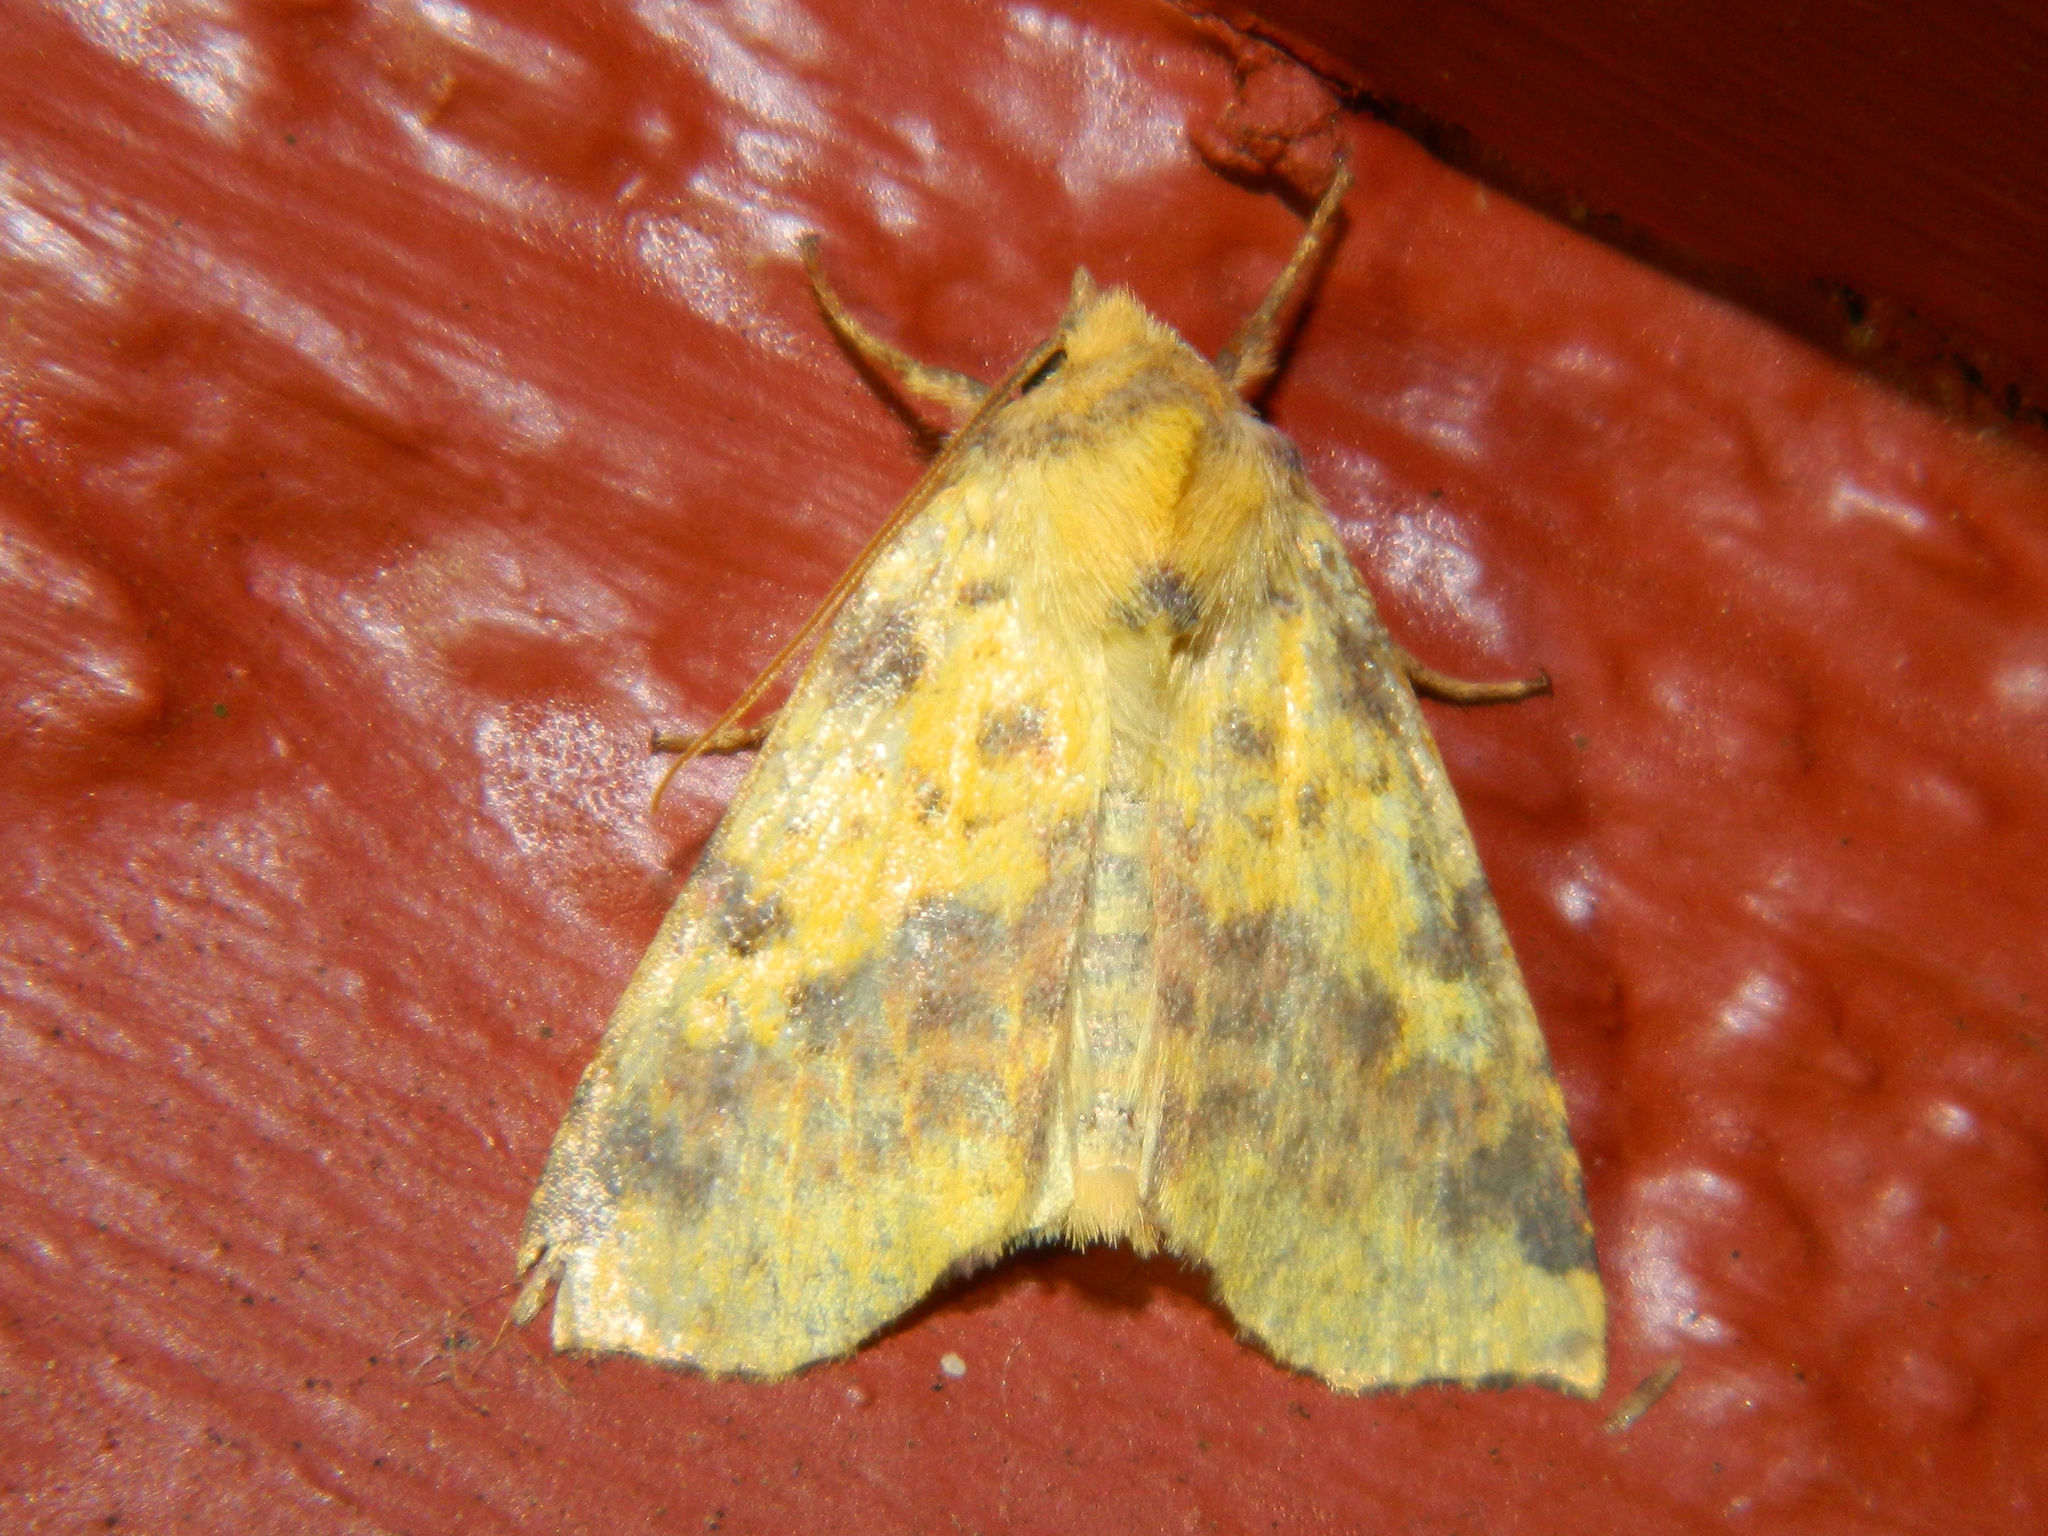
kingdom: Animalia
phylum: Arthropoda
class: Insecta
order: Lepidoptera
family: Noctuidae
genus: Xanthia
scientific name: Xanthia tatago
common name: Pink-banded sallow
